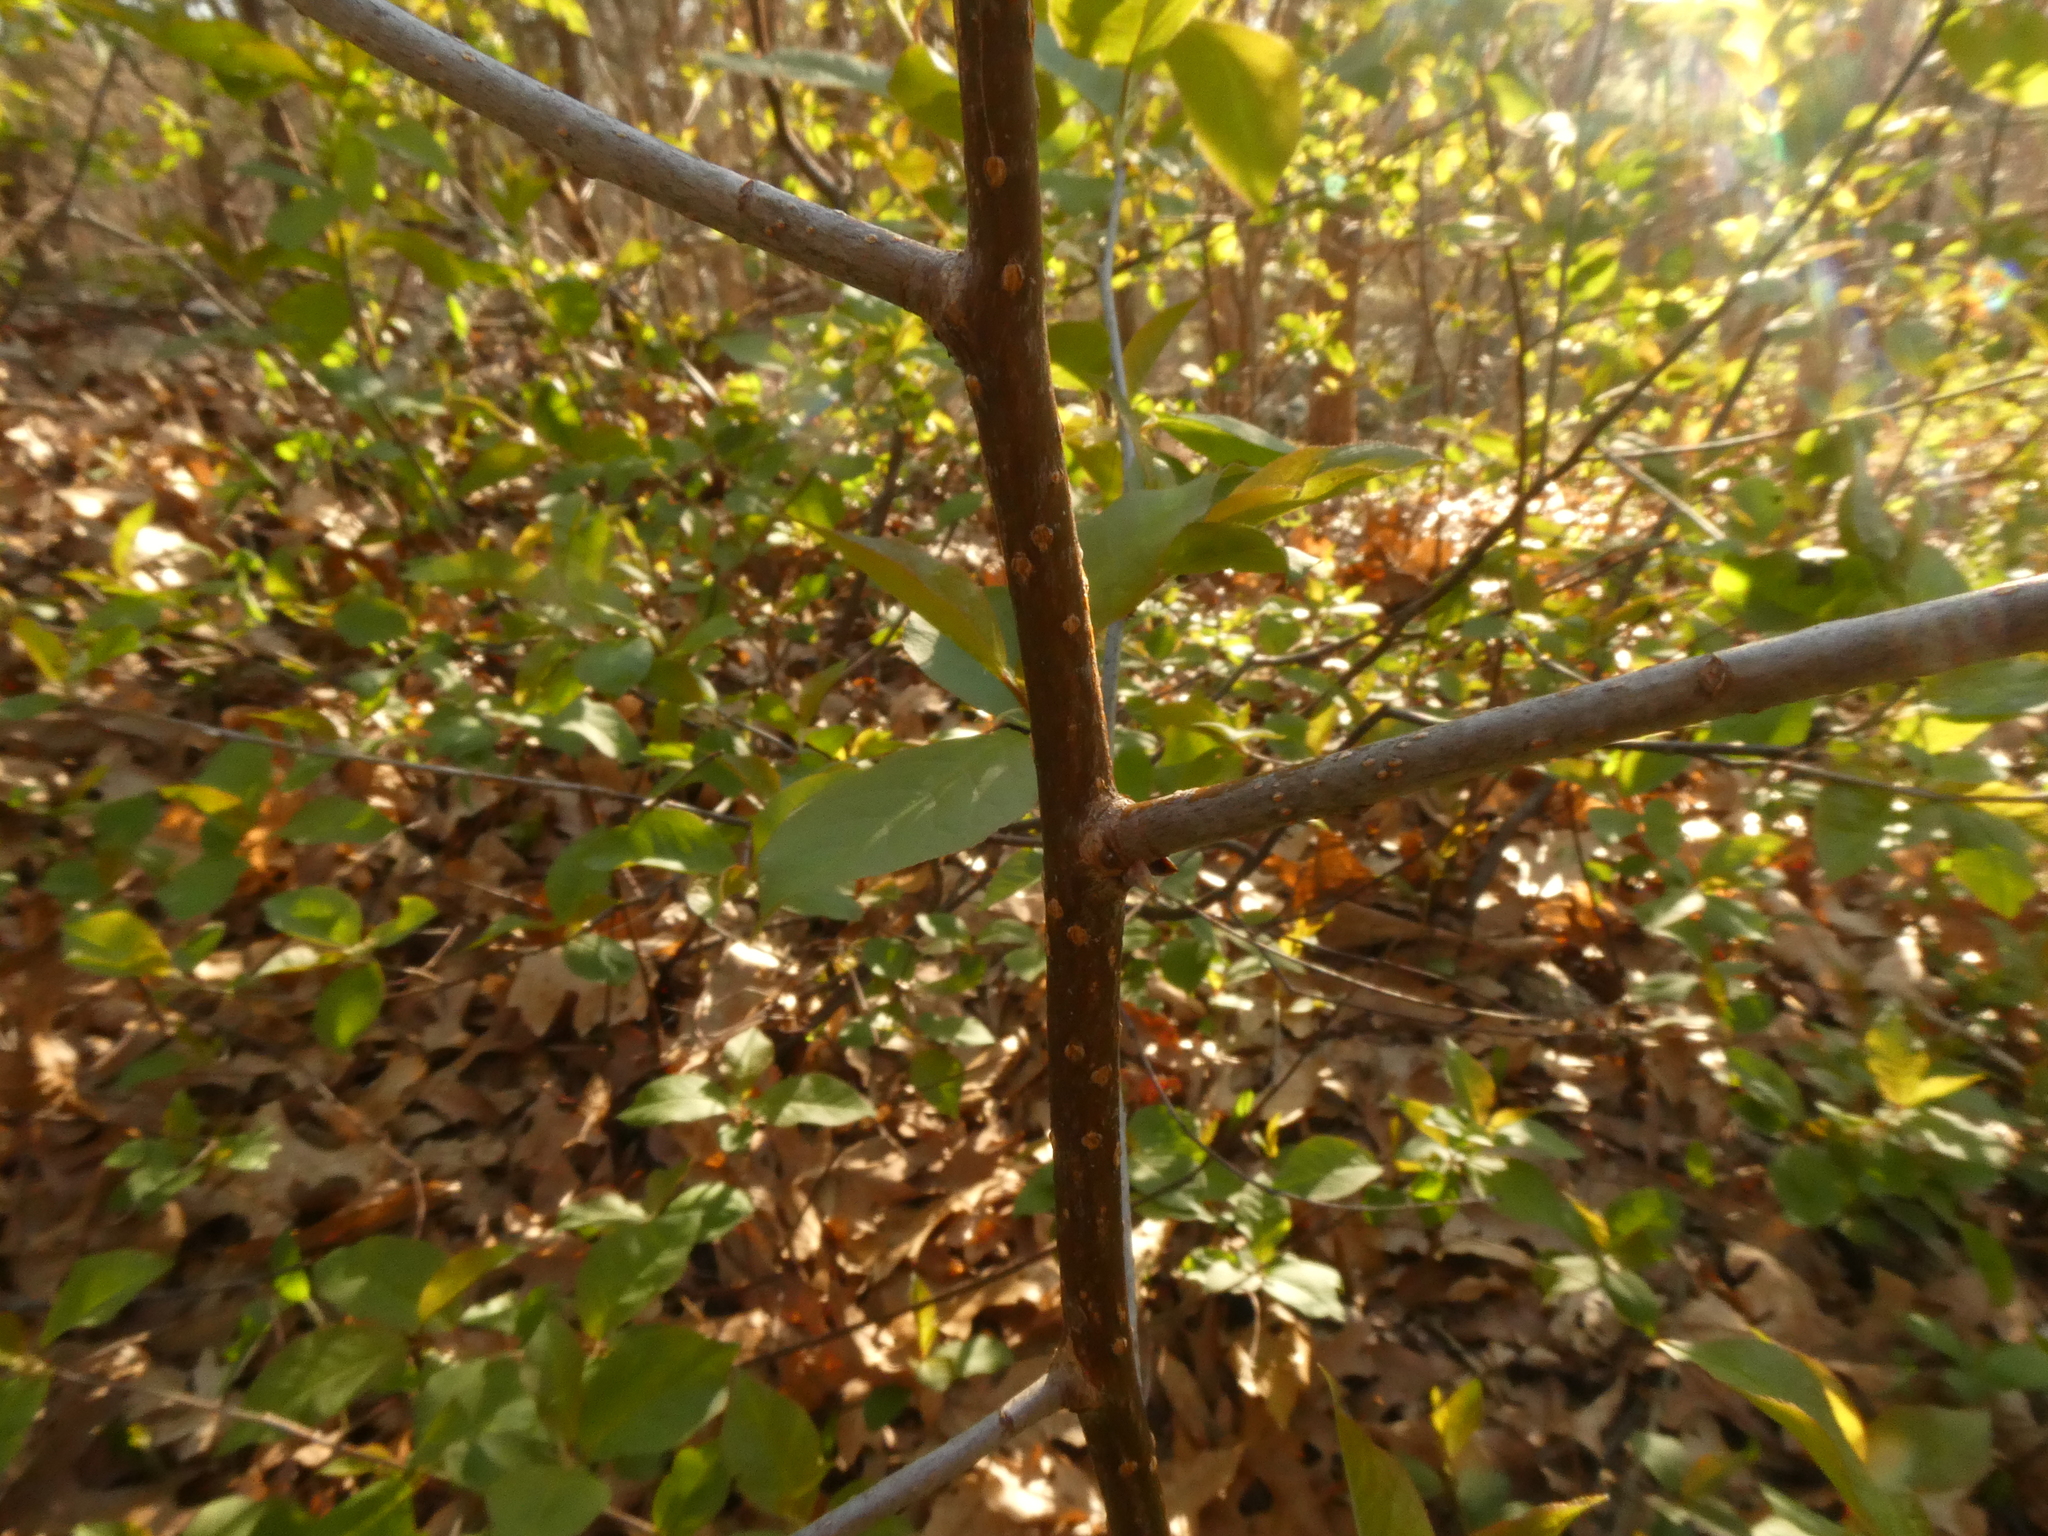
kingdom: Plantae
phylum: Tracheophyta
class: Magnoliopsida
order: Rosales
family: Rosaceae
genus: Prunus
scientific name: Prunus virginiana
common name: Chokecherry
